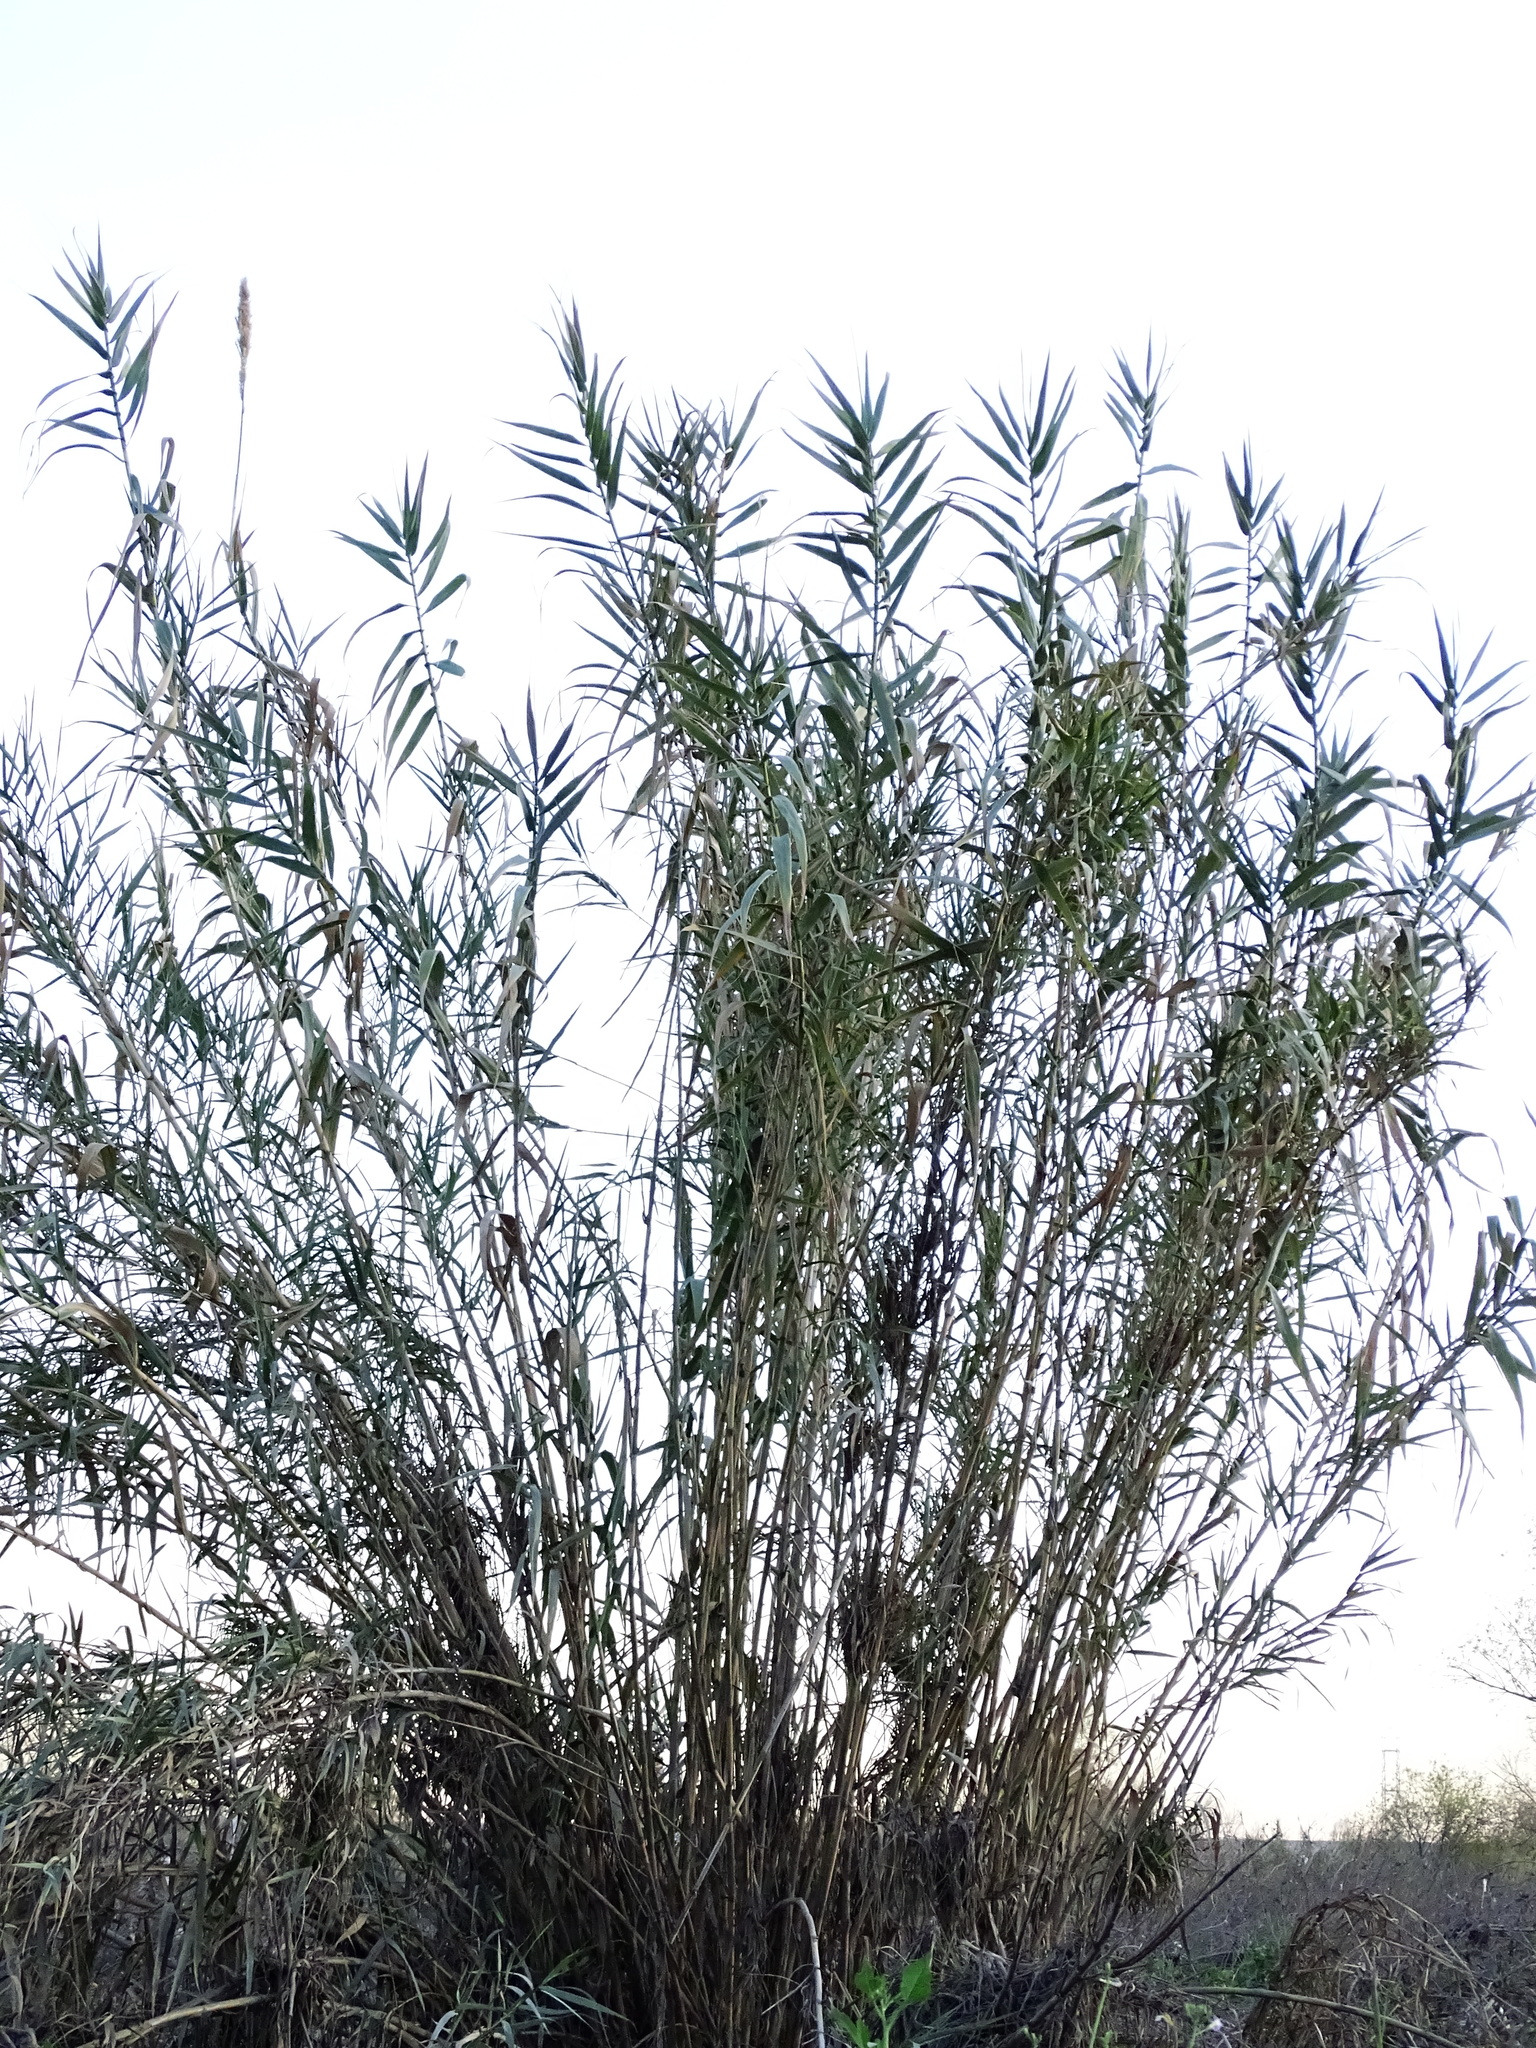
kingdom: Plantae
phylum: Tracheophyta
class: Liliopsida
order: Poales
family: Poaceae
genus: Arundo
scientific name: Arundo donax
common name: Giant reed
